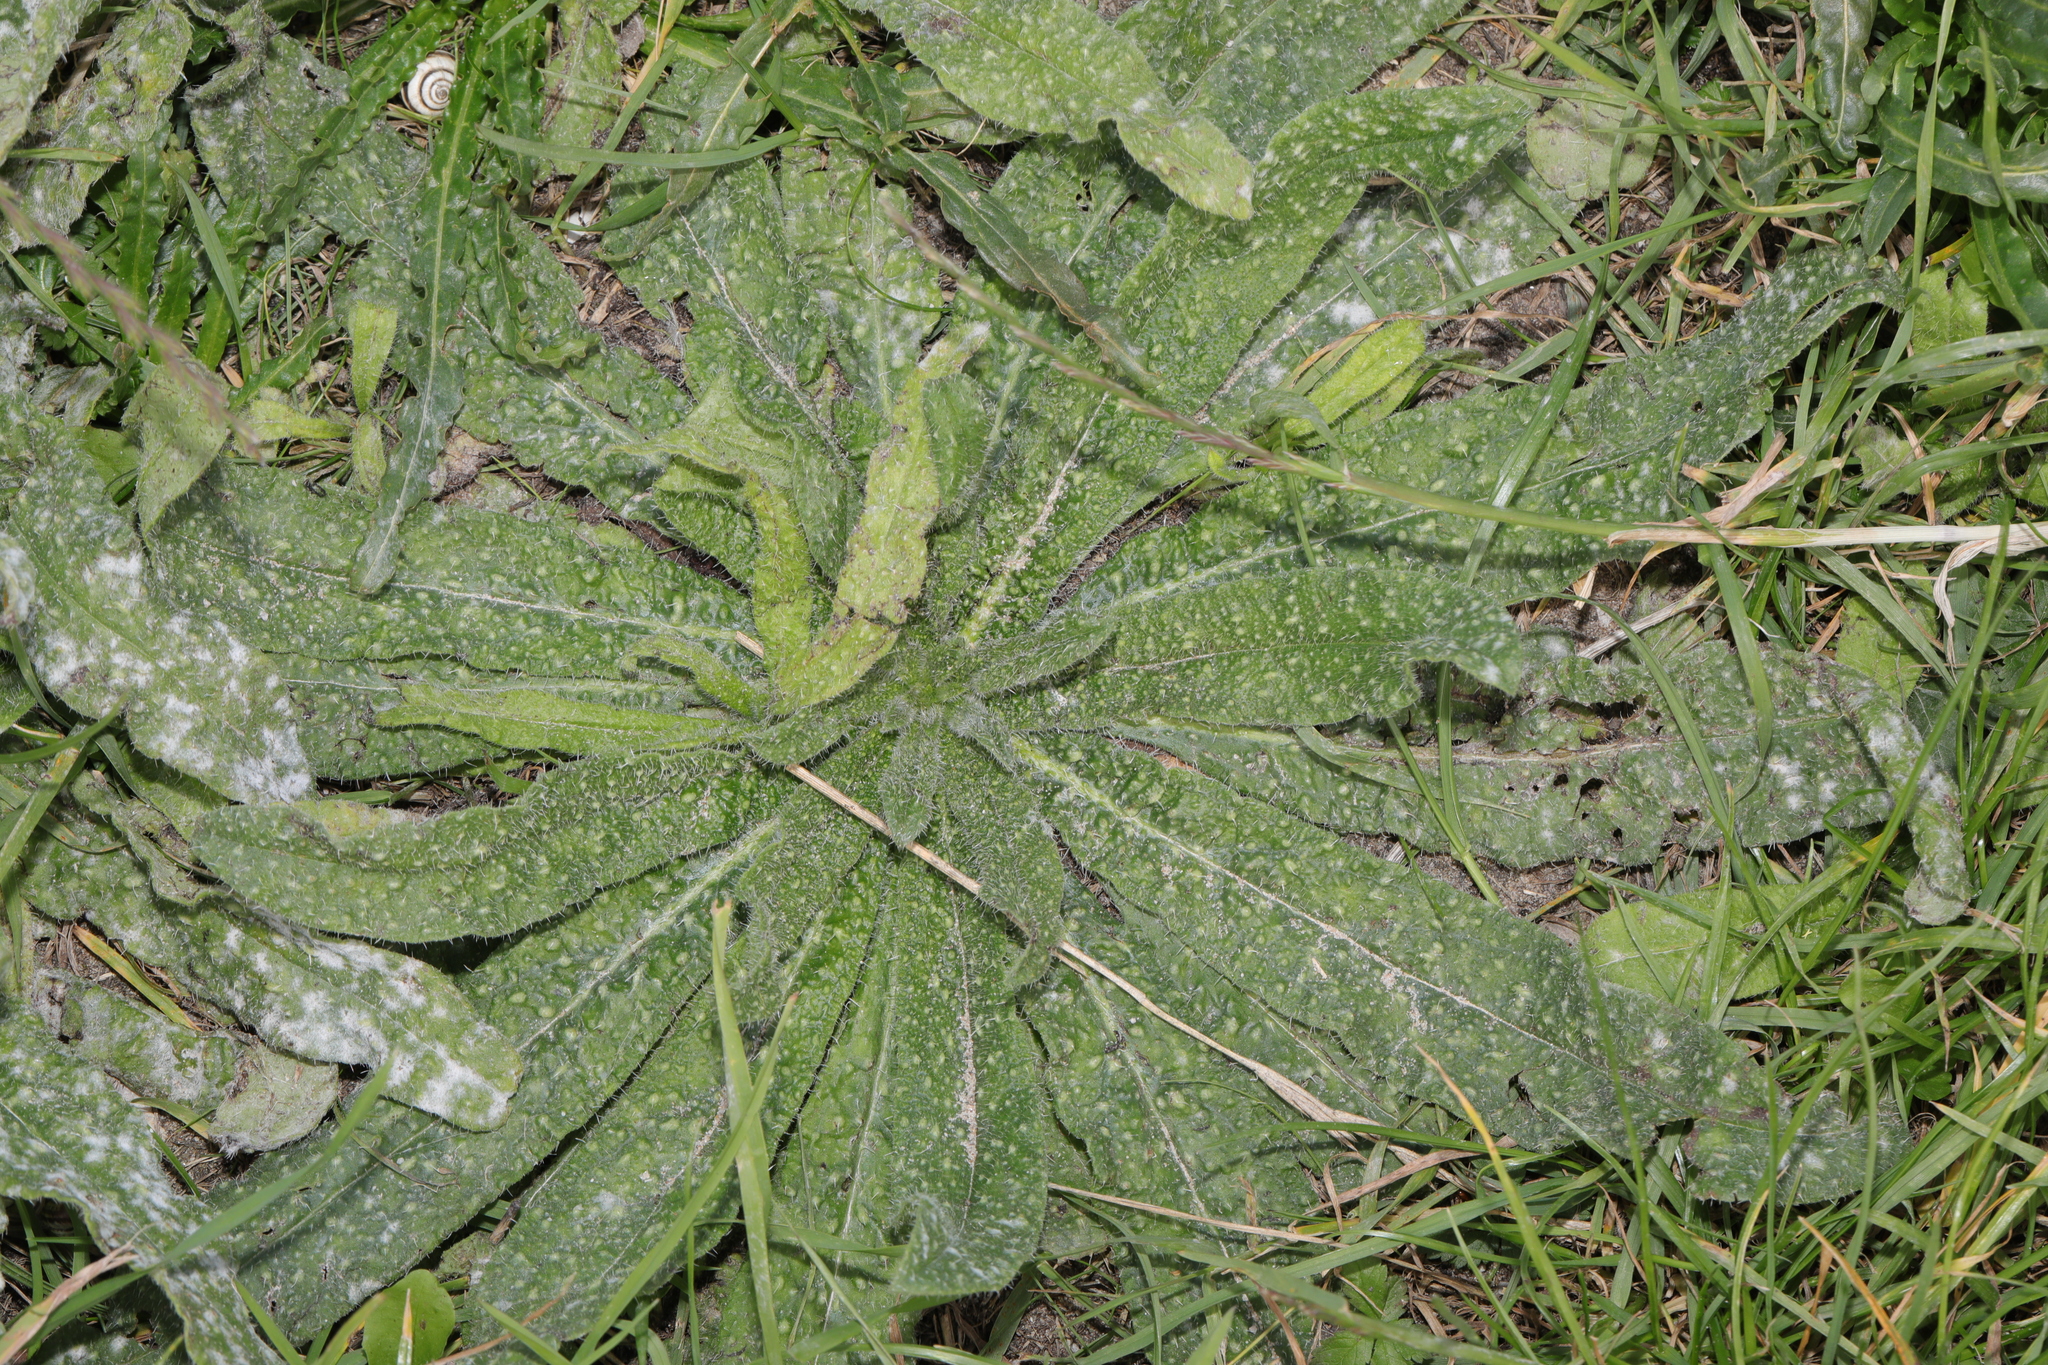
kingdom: Plantae
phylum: Tracheophyta
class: Magnoliopsida
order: Asterales
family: Asteraceae
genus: Helminthotheca
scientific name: Helminthotheca echioides
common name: Ox-tongue
